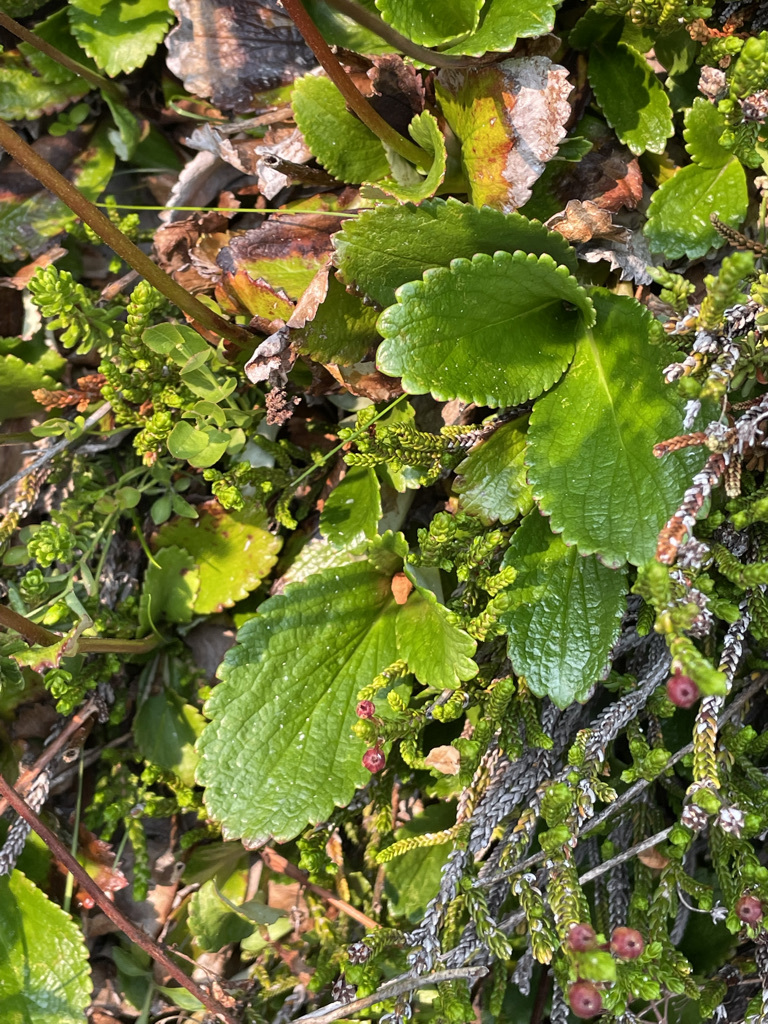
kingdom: Plantae
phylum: Tracheophyta
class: Magnoliopsida
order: Saxifragales
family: Saxifragaceae
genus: Leptarrhena
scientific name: Leptarrhena pyrolifolia
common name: Leatherleaf-saxifrage
